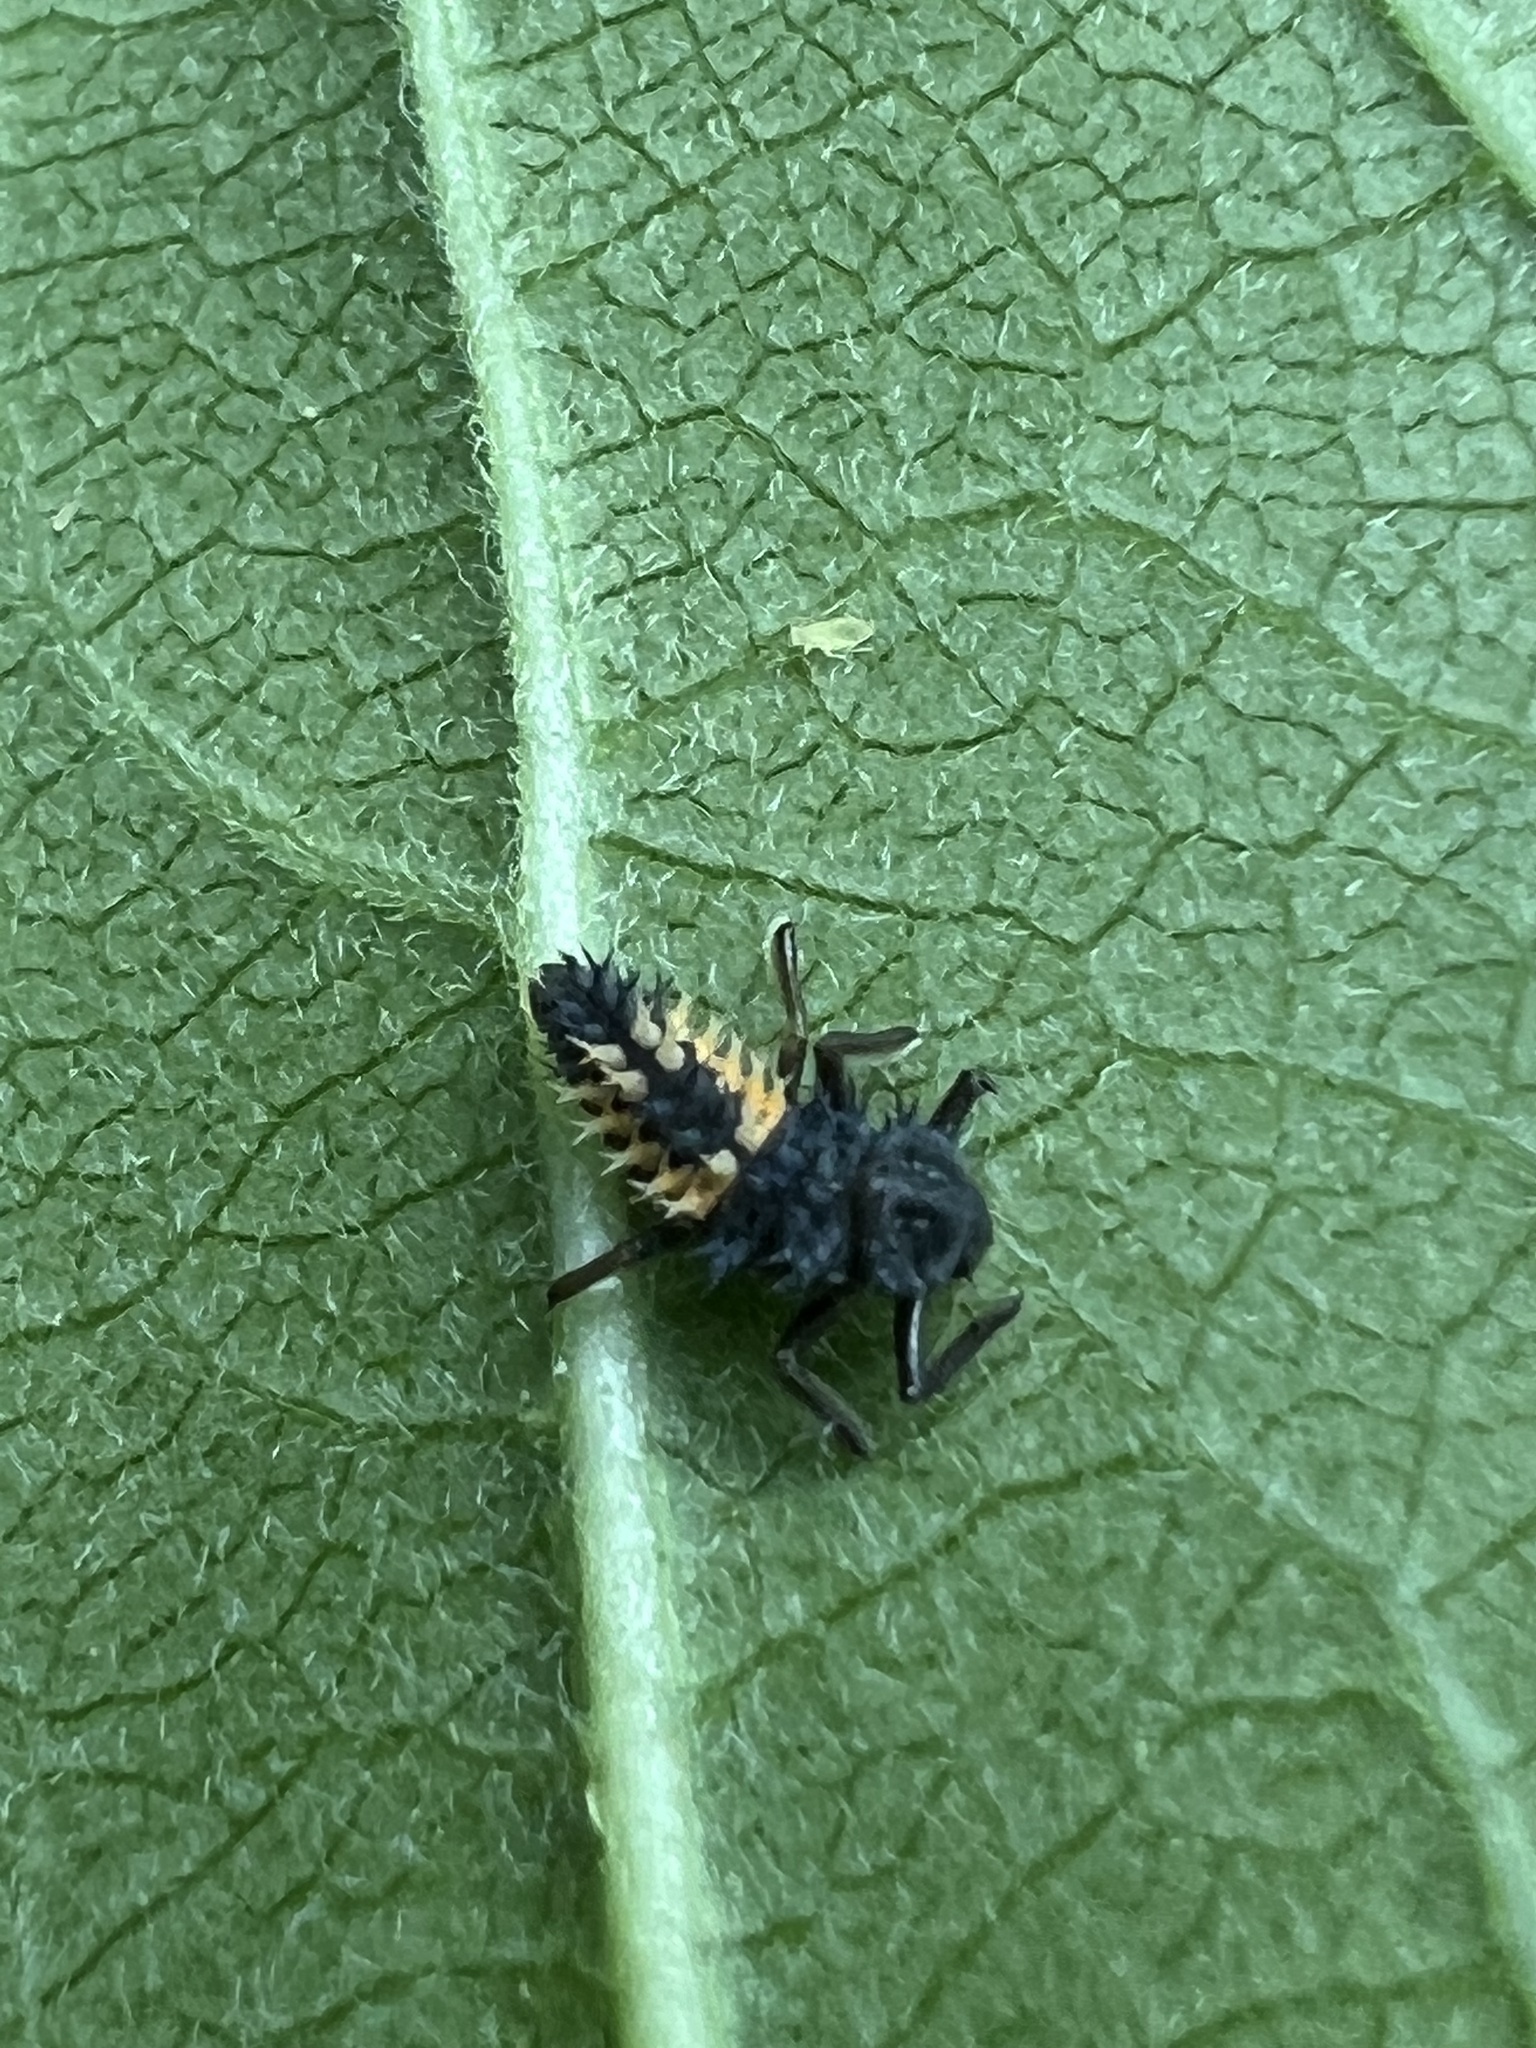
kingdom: Animalia
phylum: Arthropoda
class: Insecta
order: Coleoptera
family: Coccinellidae
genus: Harmonia
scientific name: Harmonia axyridis
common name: Harlequin ladybird
